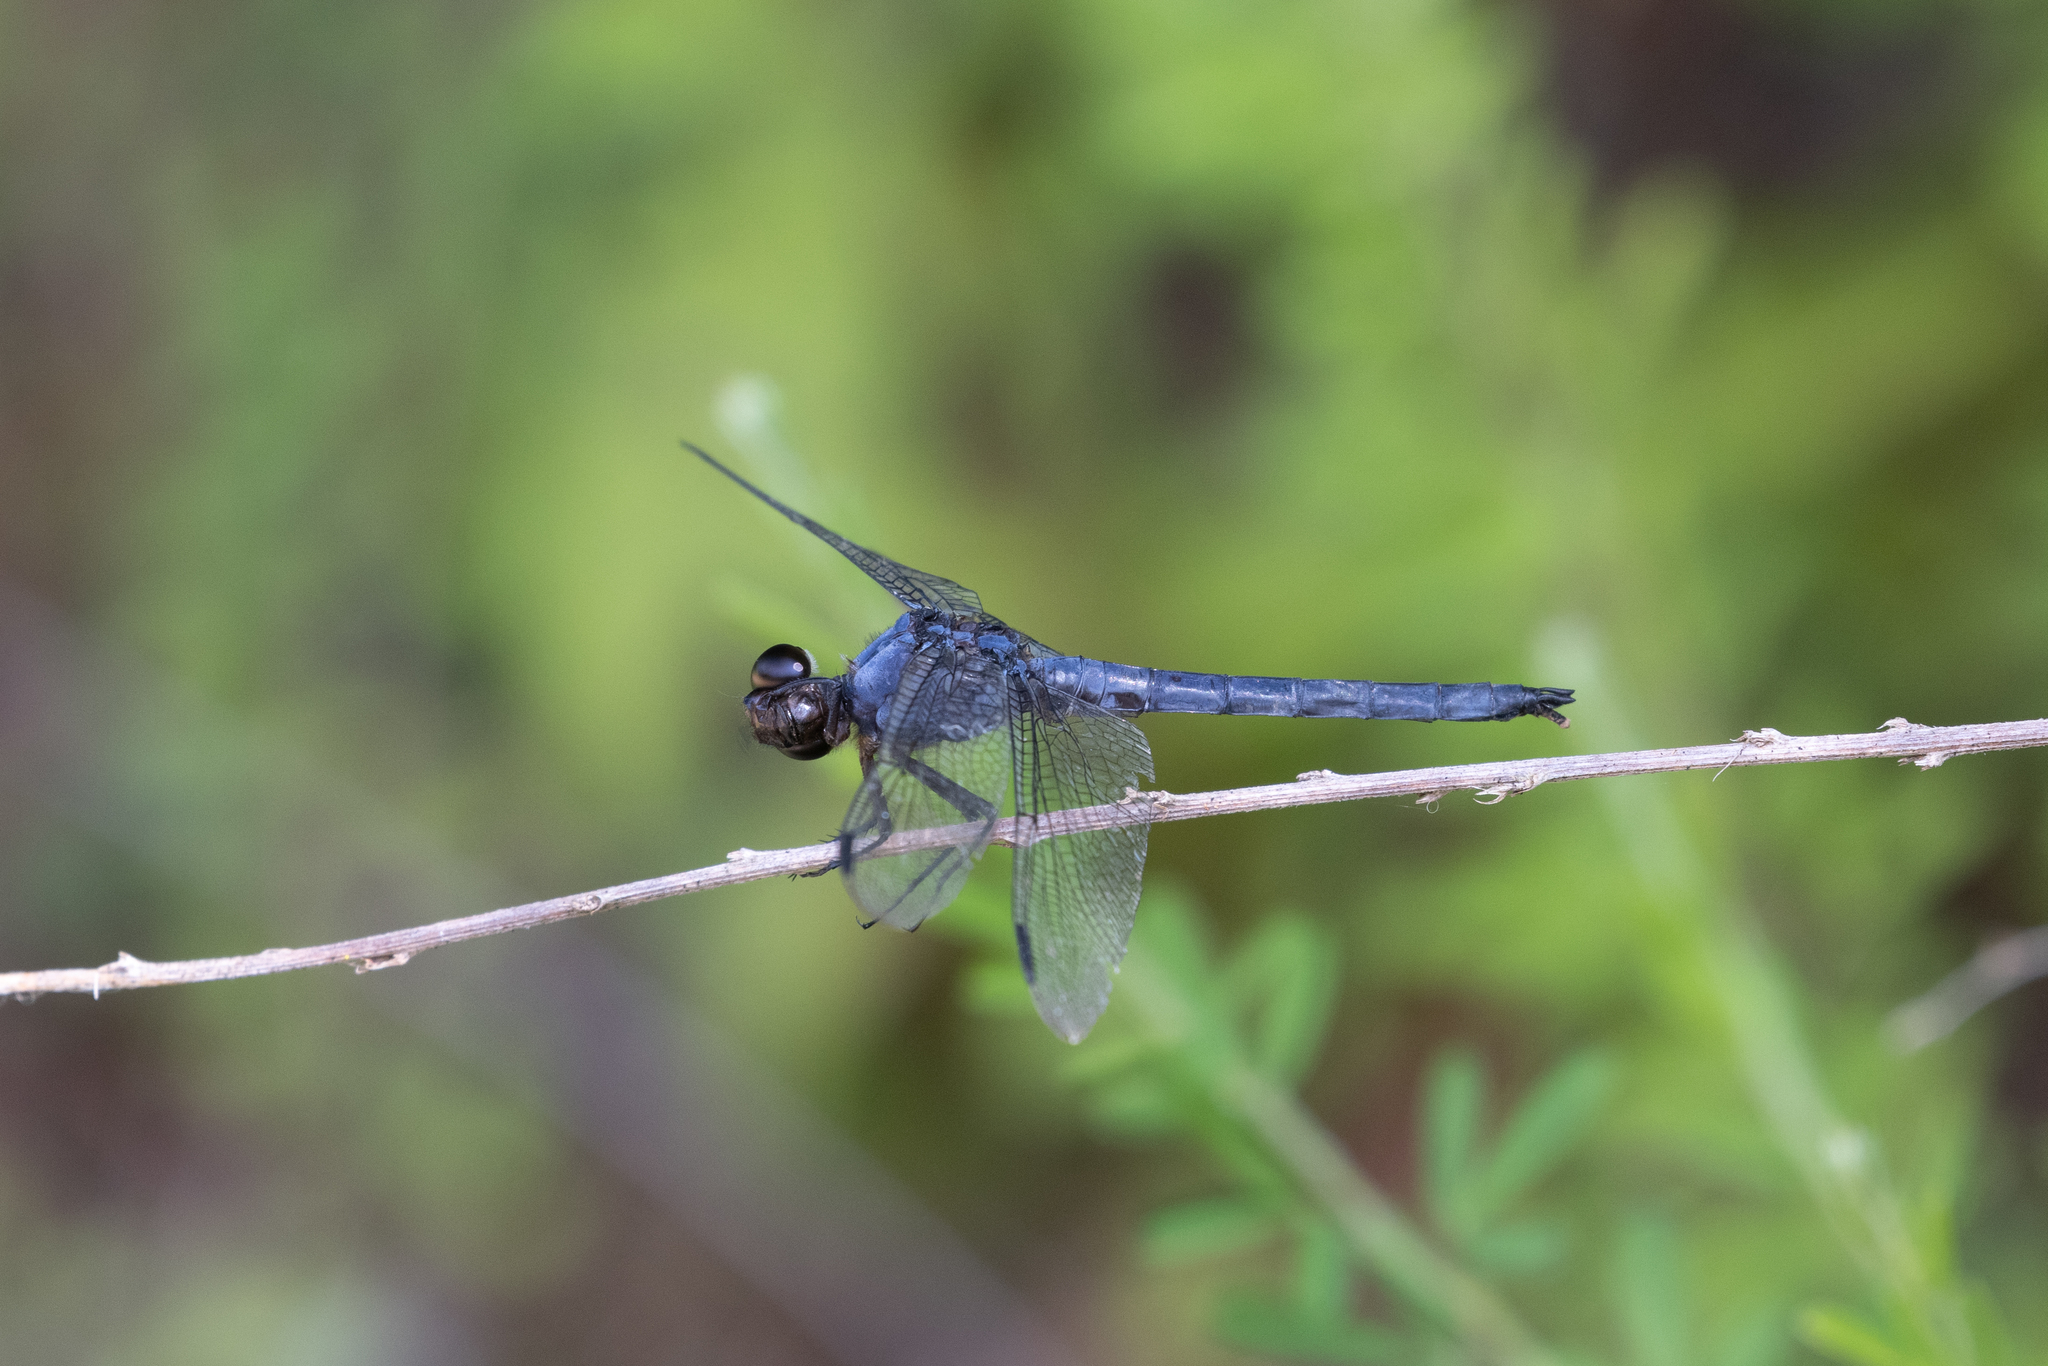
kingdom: Animalia
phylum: Arthropoda
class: Insecta
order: Odonata
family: Libellulidae
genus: Libellula
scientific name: Libellula incesta
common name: Slaty skimmer
